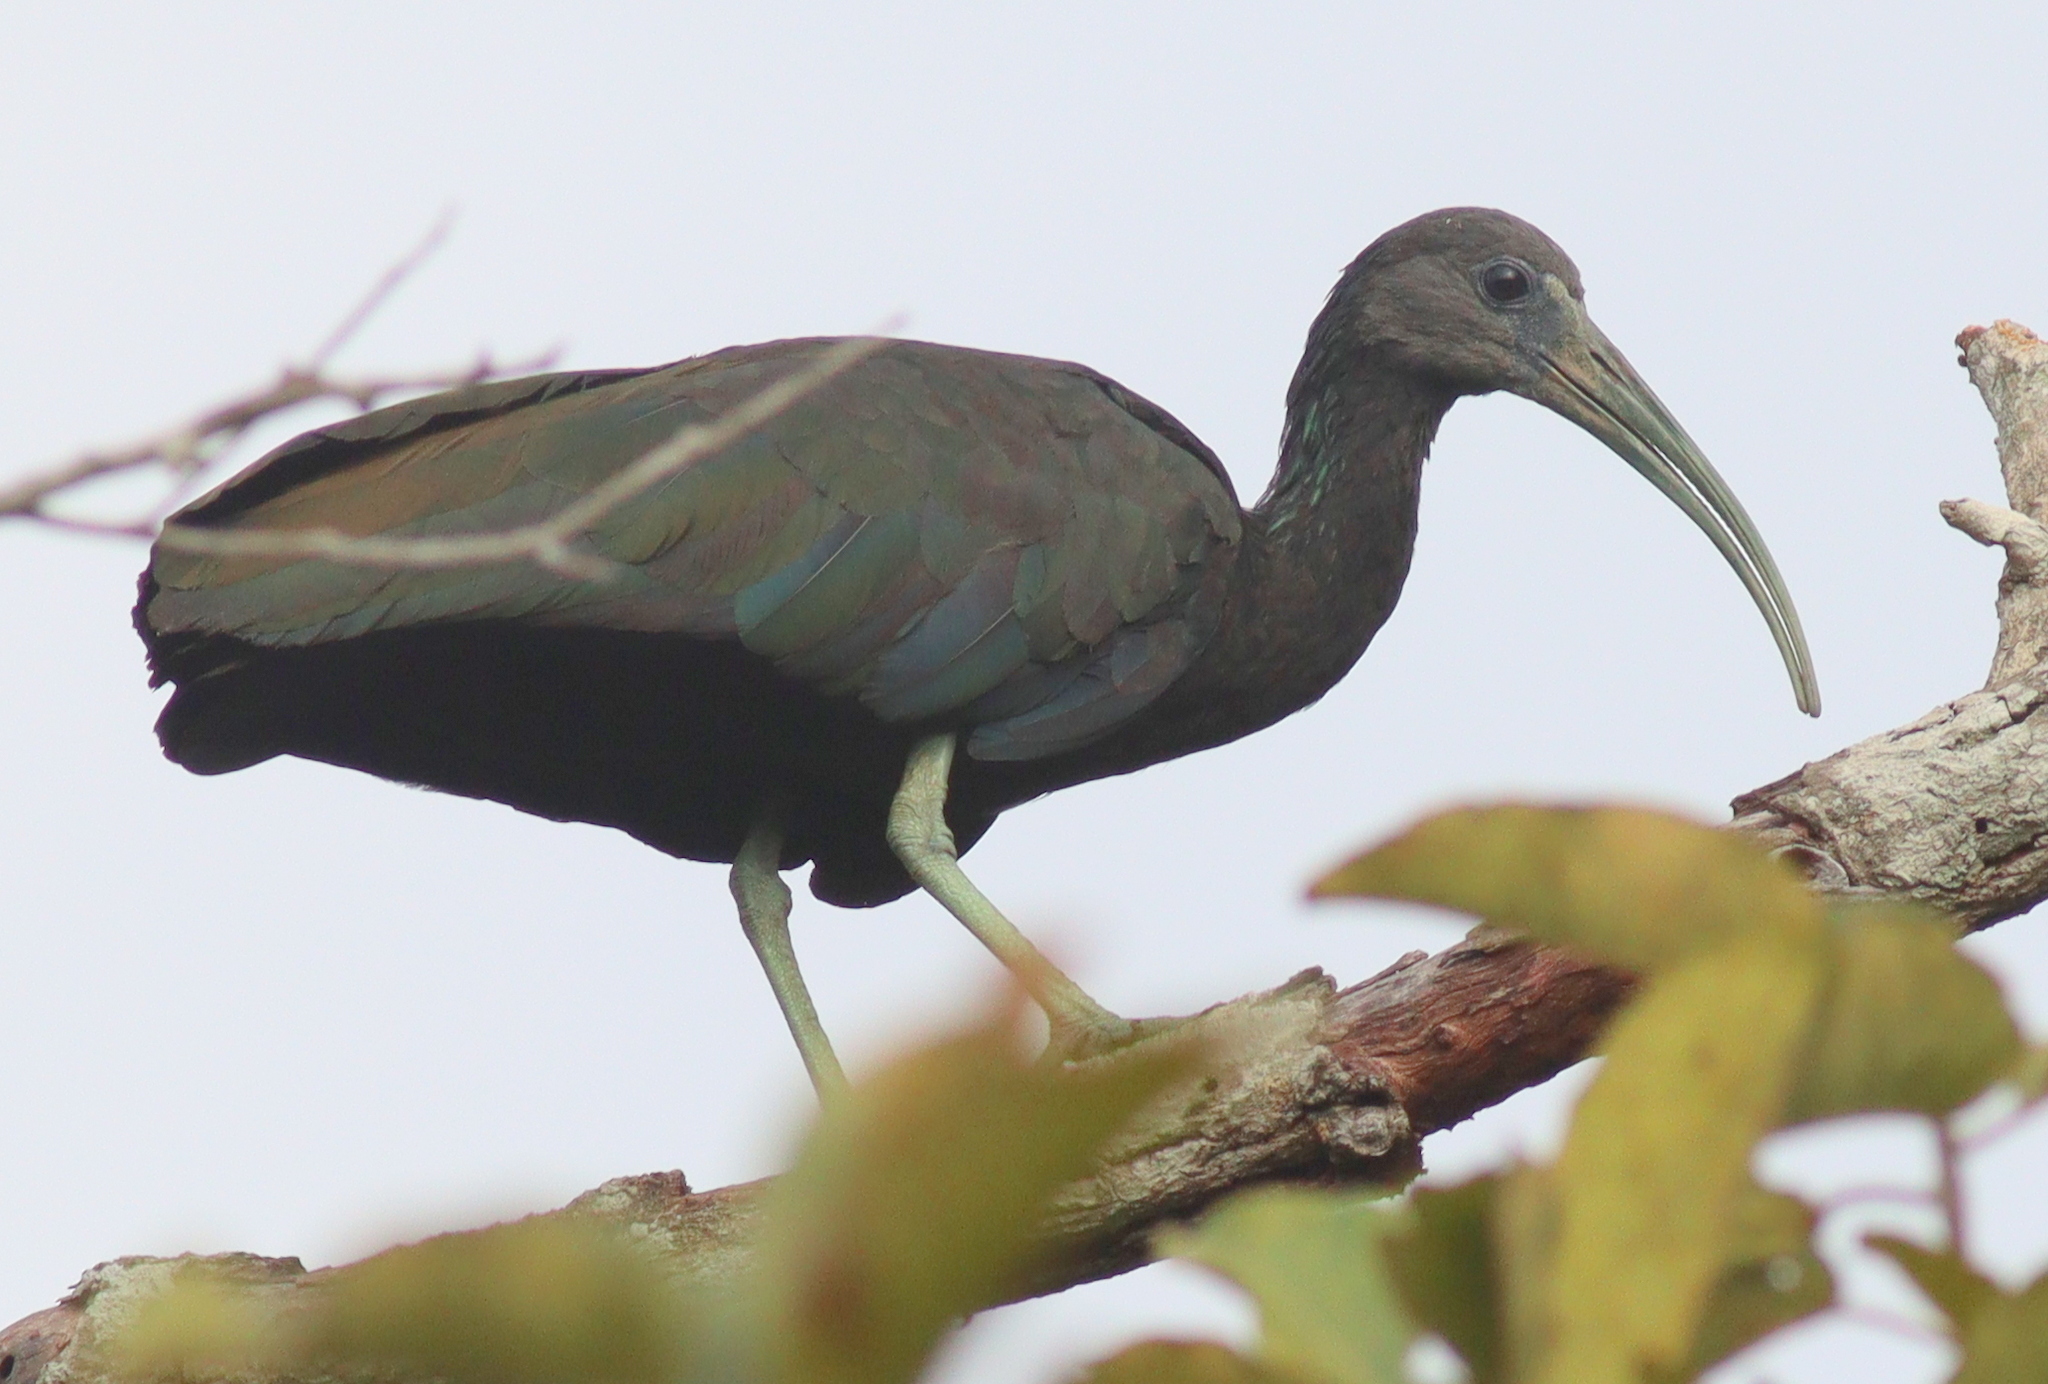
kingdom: Animalia
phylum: Chordata
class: Aves
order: Pelecaniformes
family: Threskiornithidae
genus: Mesembrinibis
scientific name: Mesembrinibis cayennensis
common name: Green ibis
